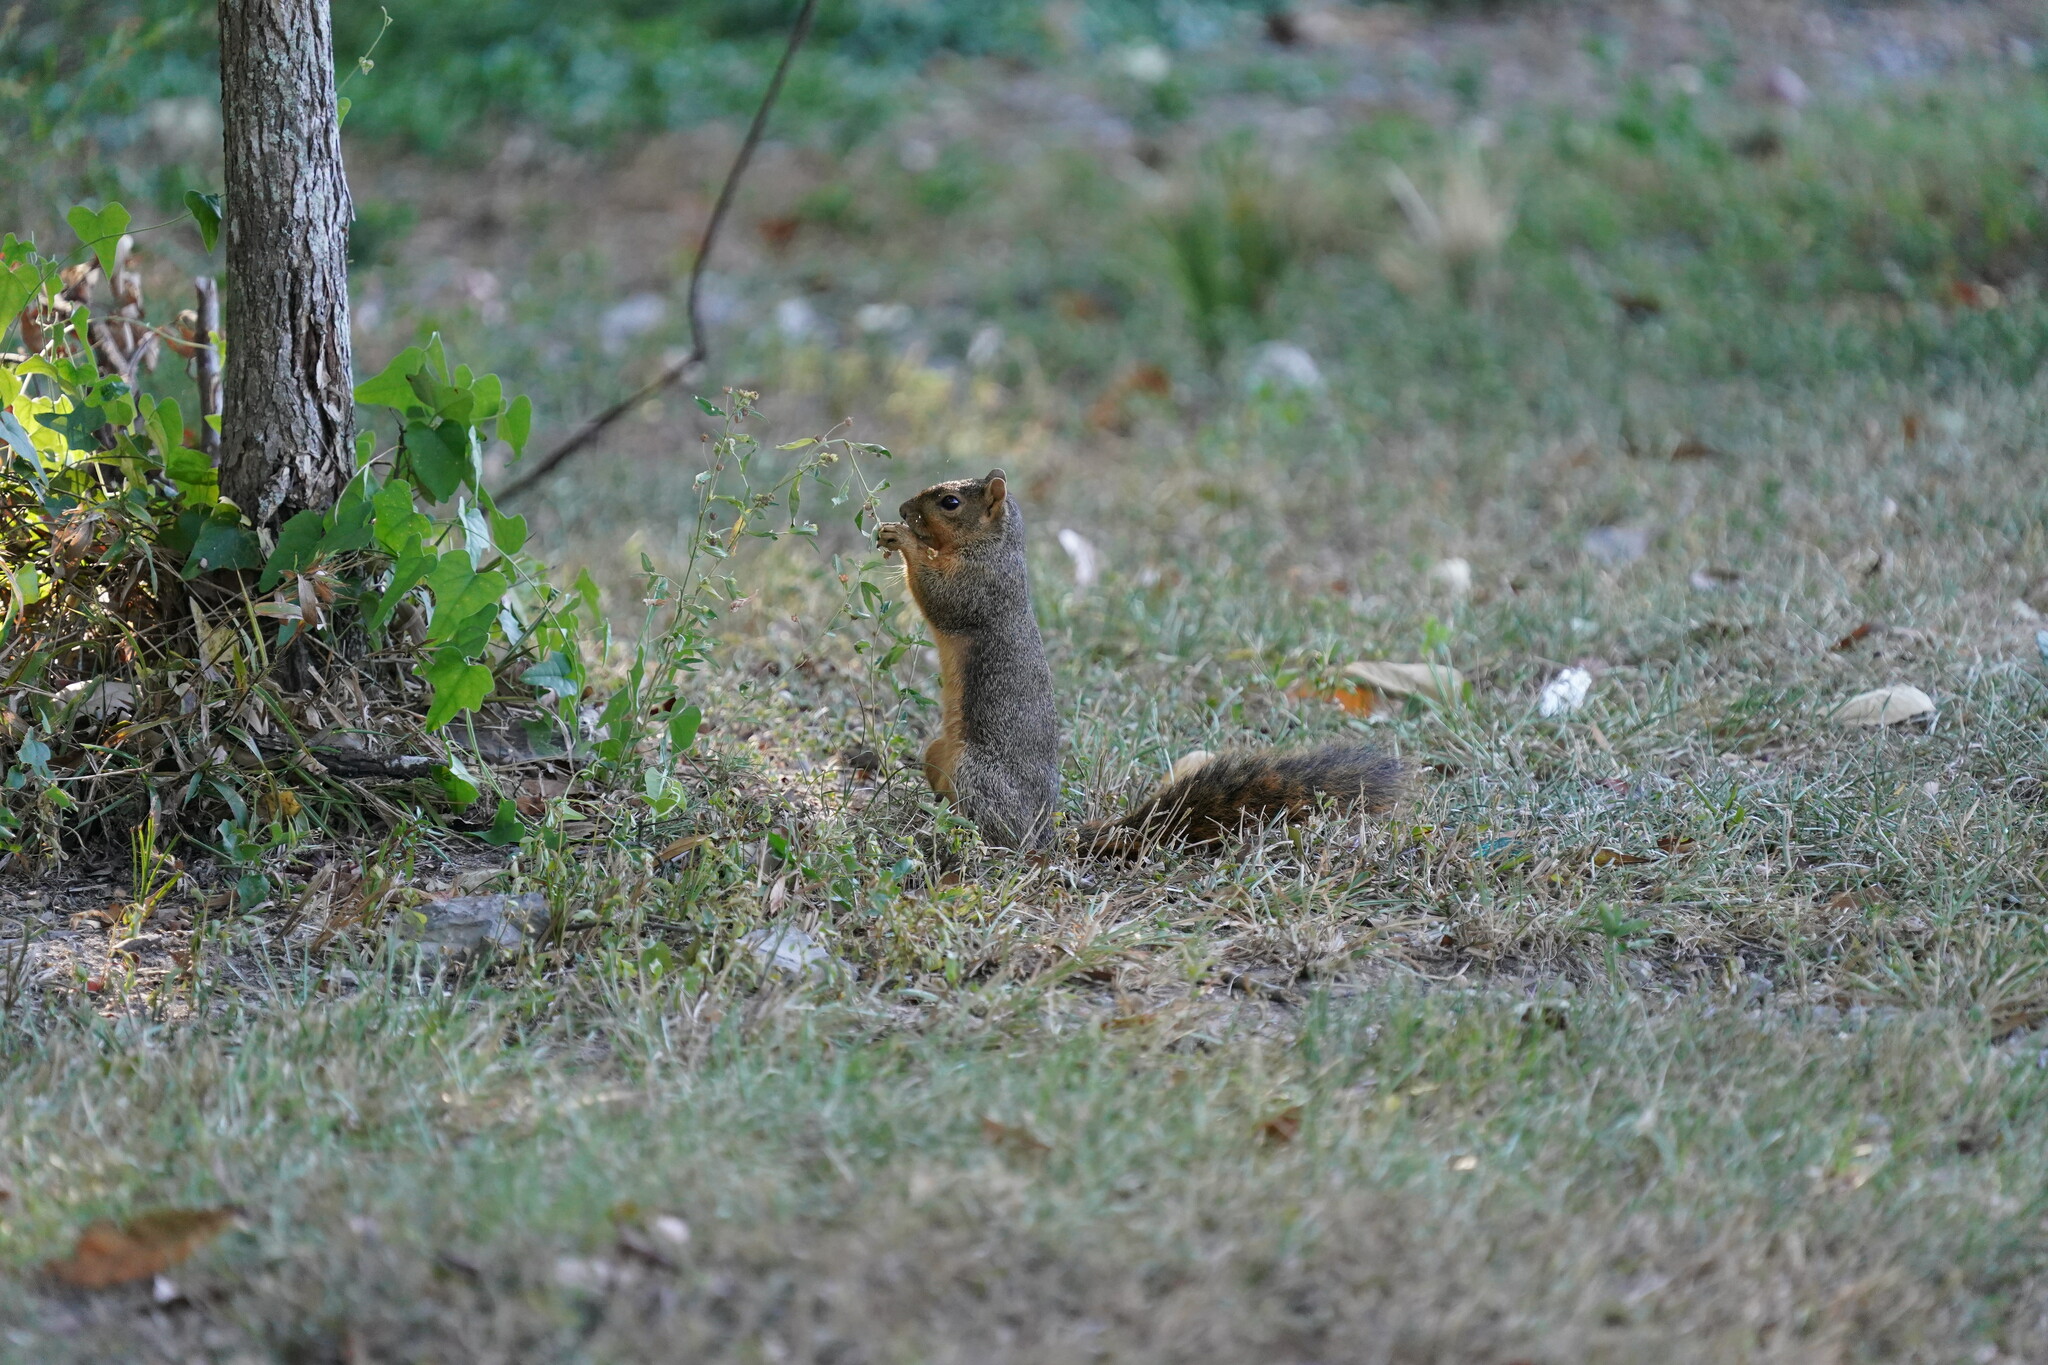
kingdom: Animalia
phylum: Chordata
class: Mammalia
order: Rodentia
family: Sciuridae
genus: Sciurus
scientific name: Sciurus niger
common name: Fox squirrel
